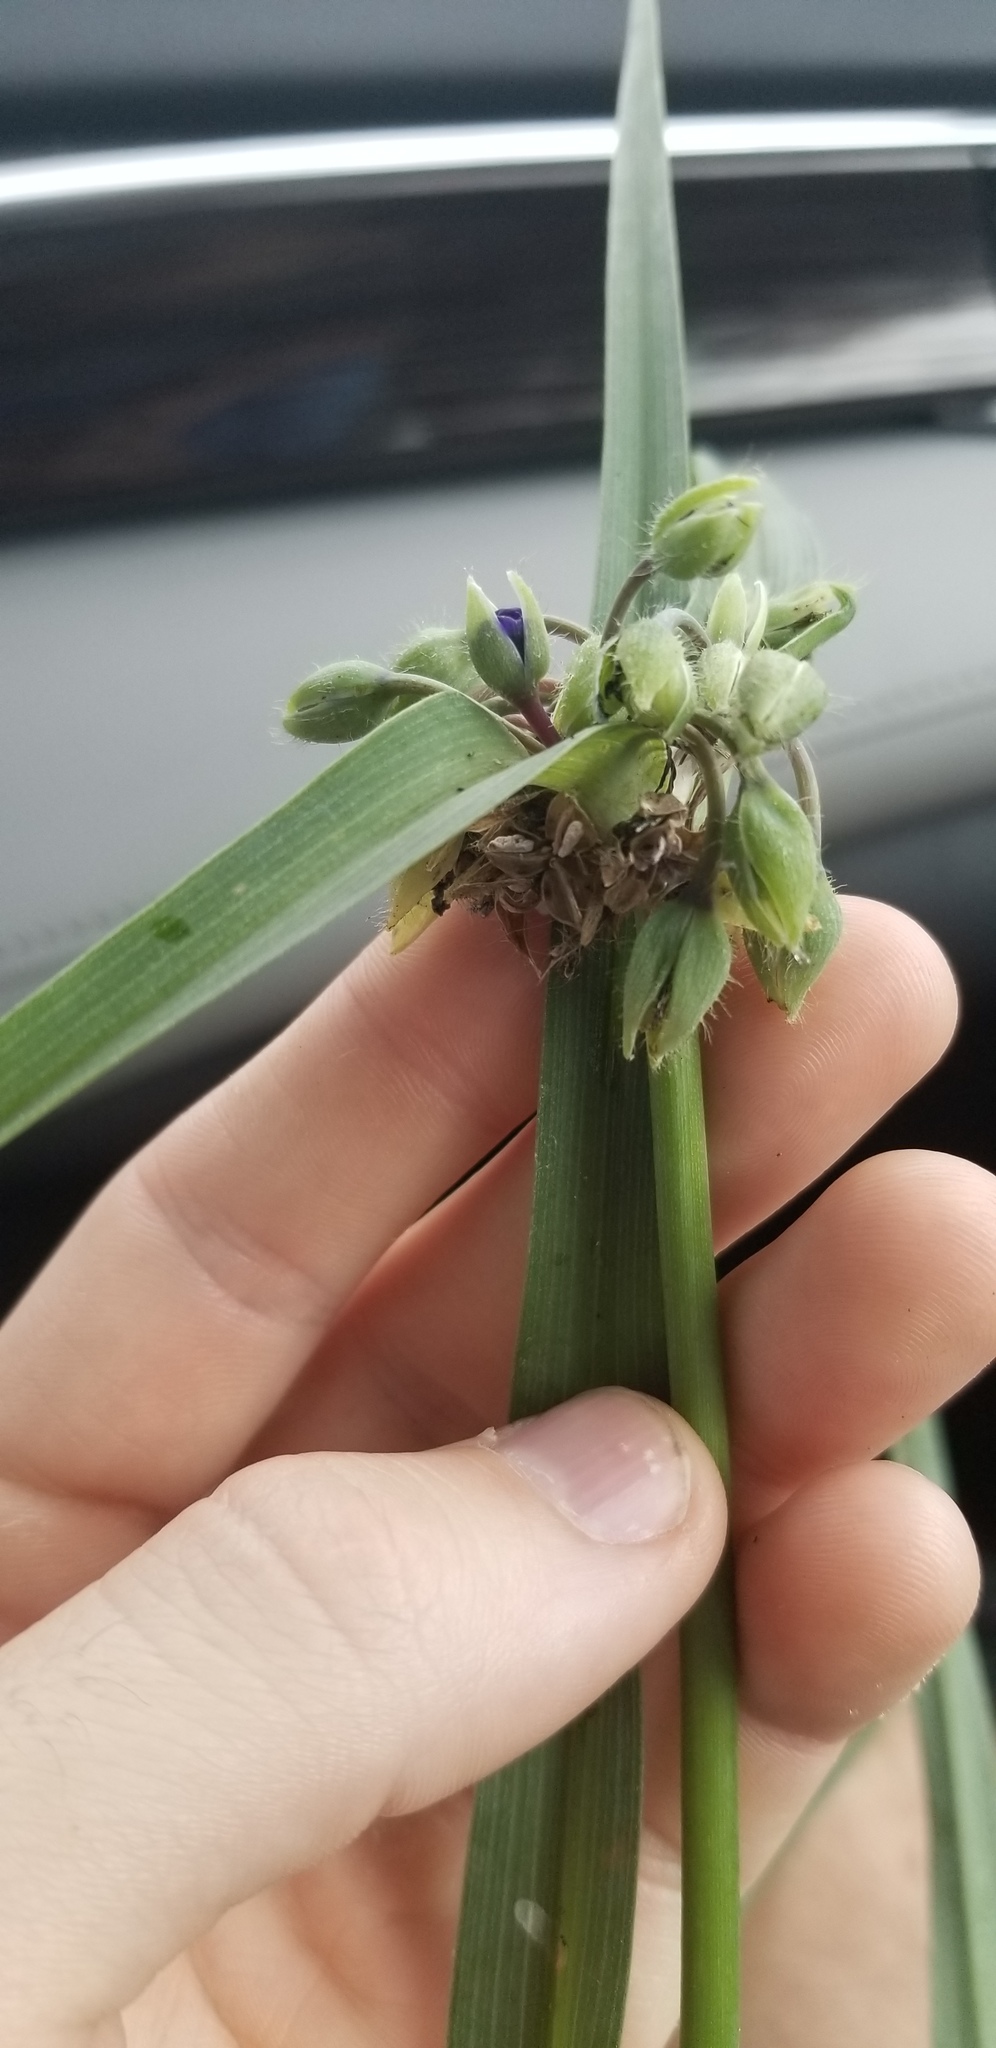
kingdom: Plantae
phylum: Tracheophyta
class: Liliopsida
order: Commelinales
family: Commelinaceae
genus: Tradescantia
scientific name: Tradescantia virginiana
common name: Spiderwort
